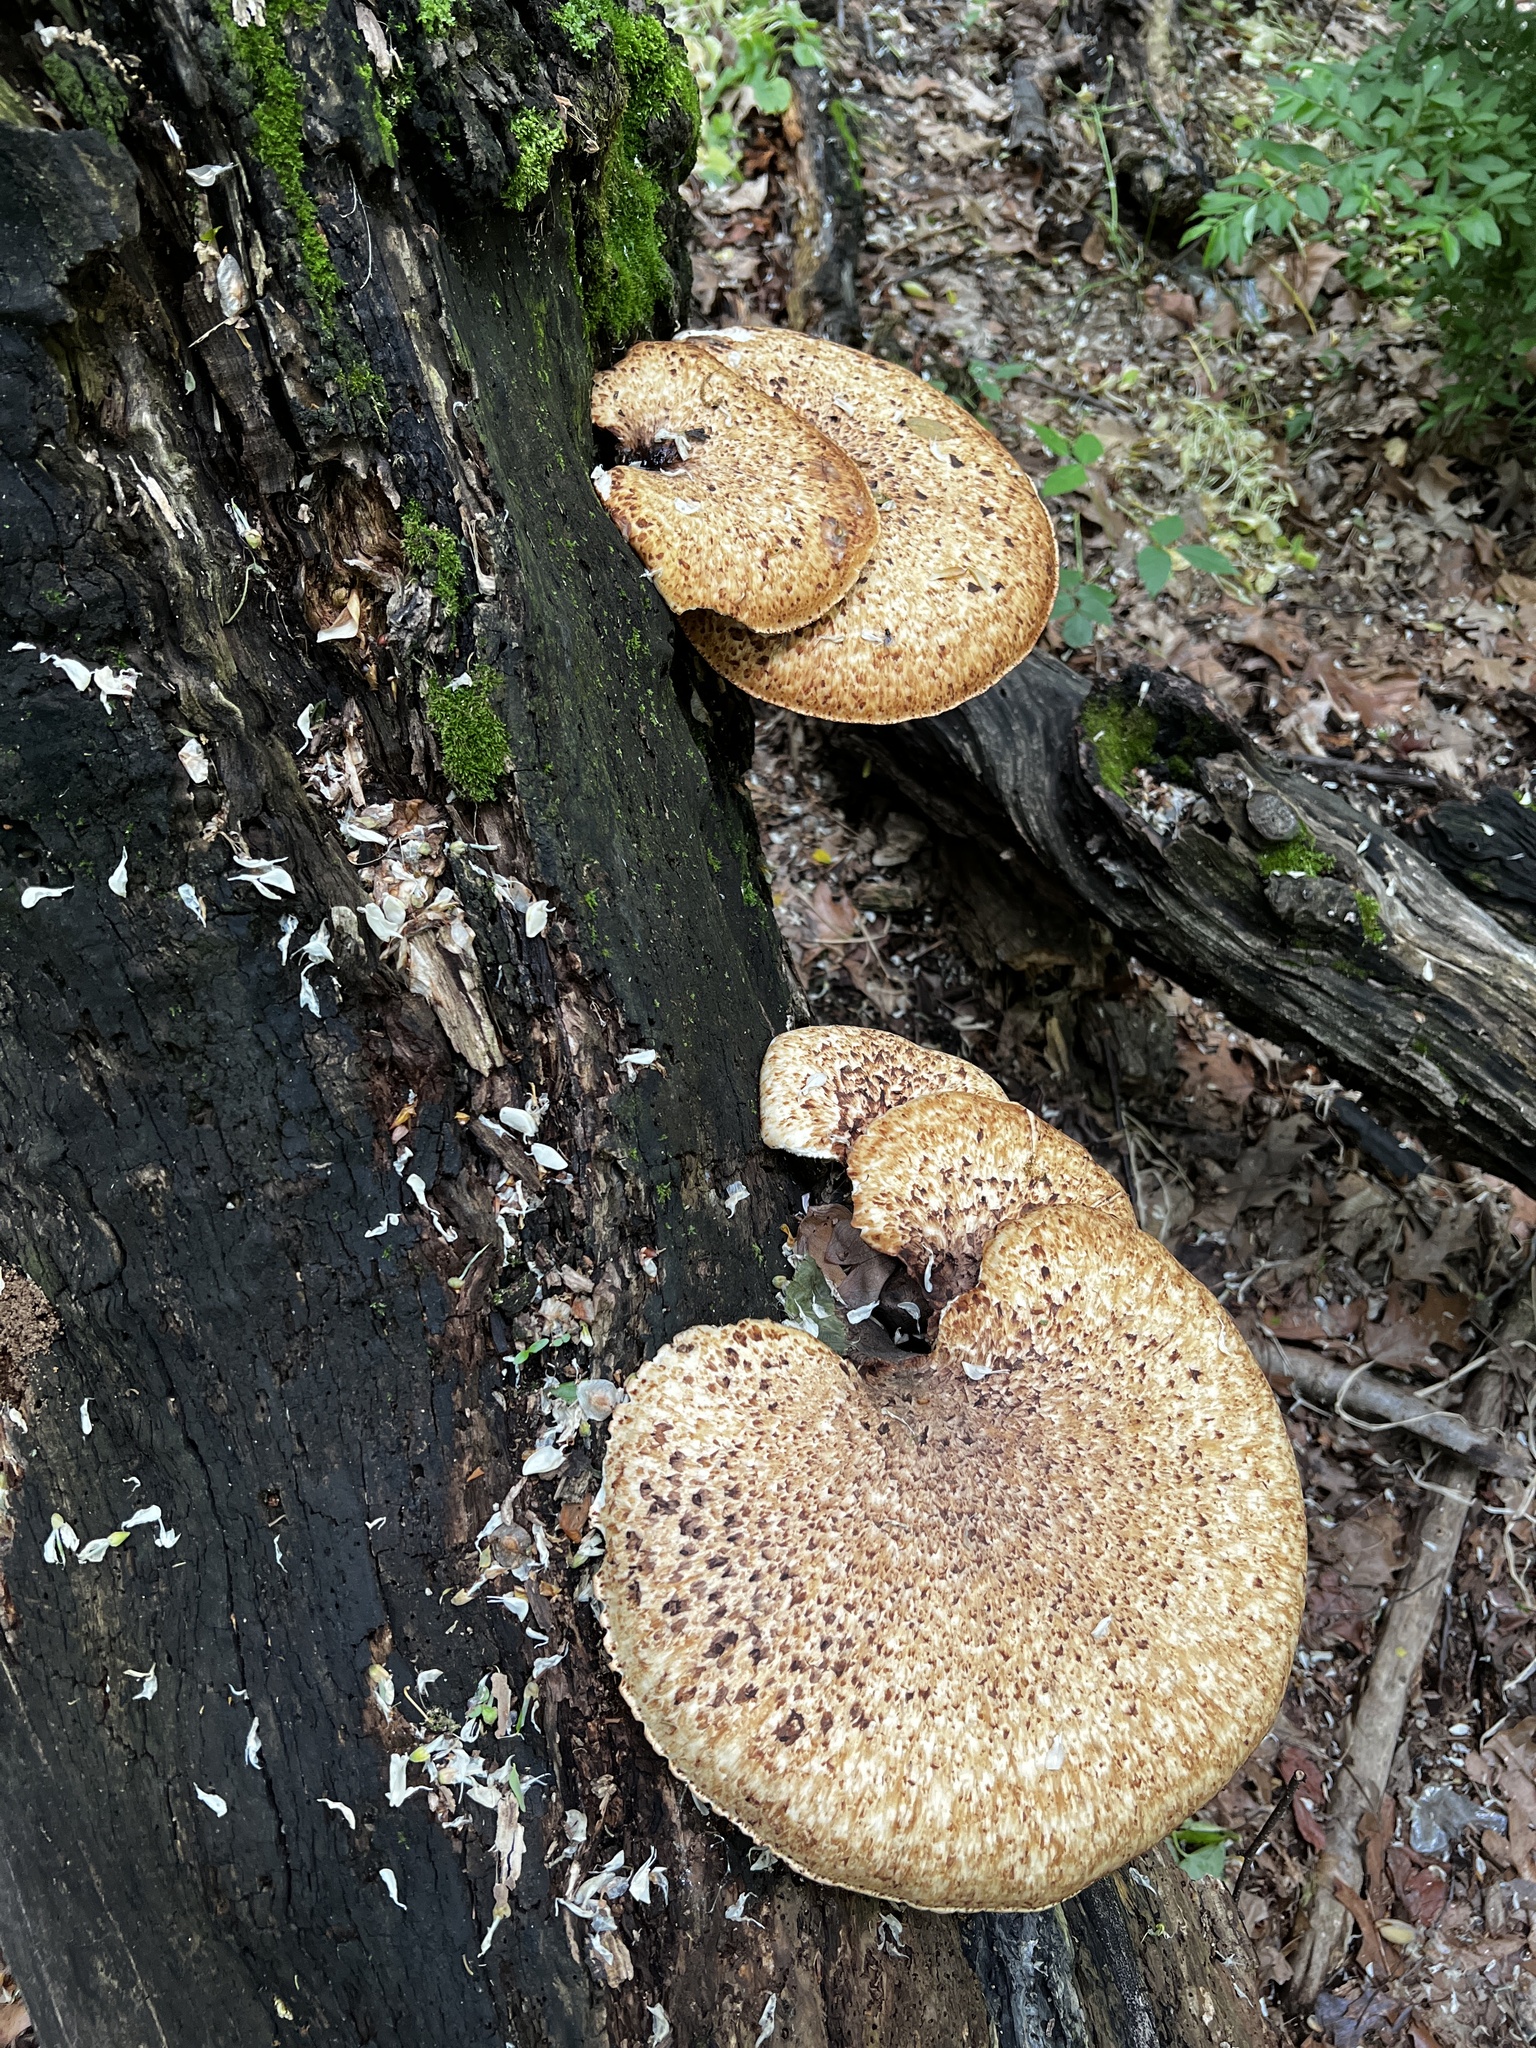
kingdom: Fungi
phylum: Basidiomycota
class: Agaricomycetes
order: Polyporales
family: Polyporaceae
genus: Cerioporus
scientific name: Cerioporus squamosus
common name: Dryad's saddle
